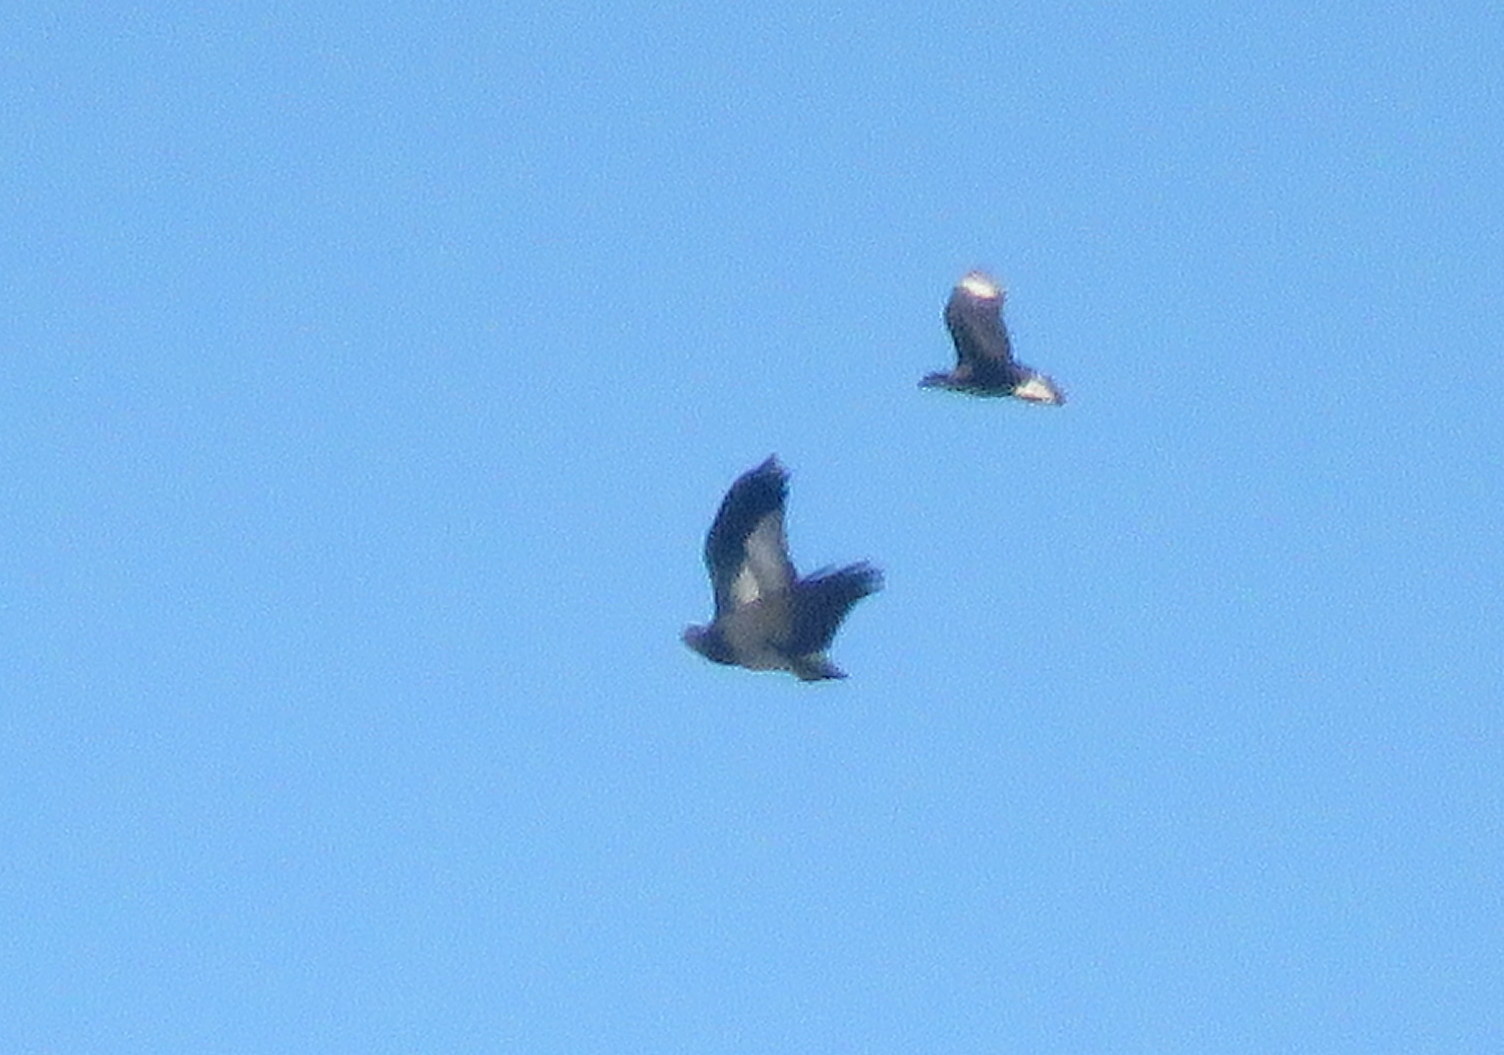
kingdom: Animalia
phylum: Chordata
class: Aves
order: Falconiformes
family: Falconidae
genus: Caracara
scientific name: Caracara plancus
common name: Southern caracara
